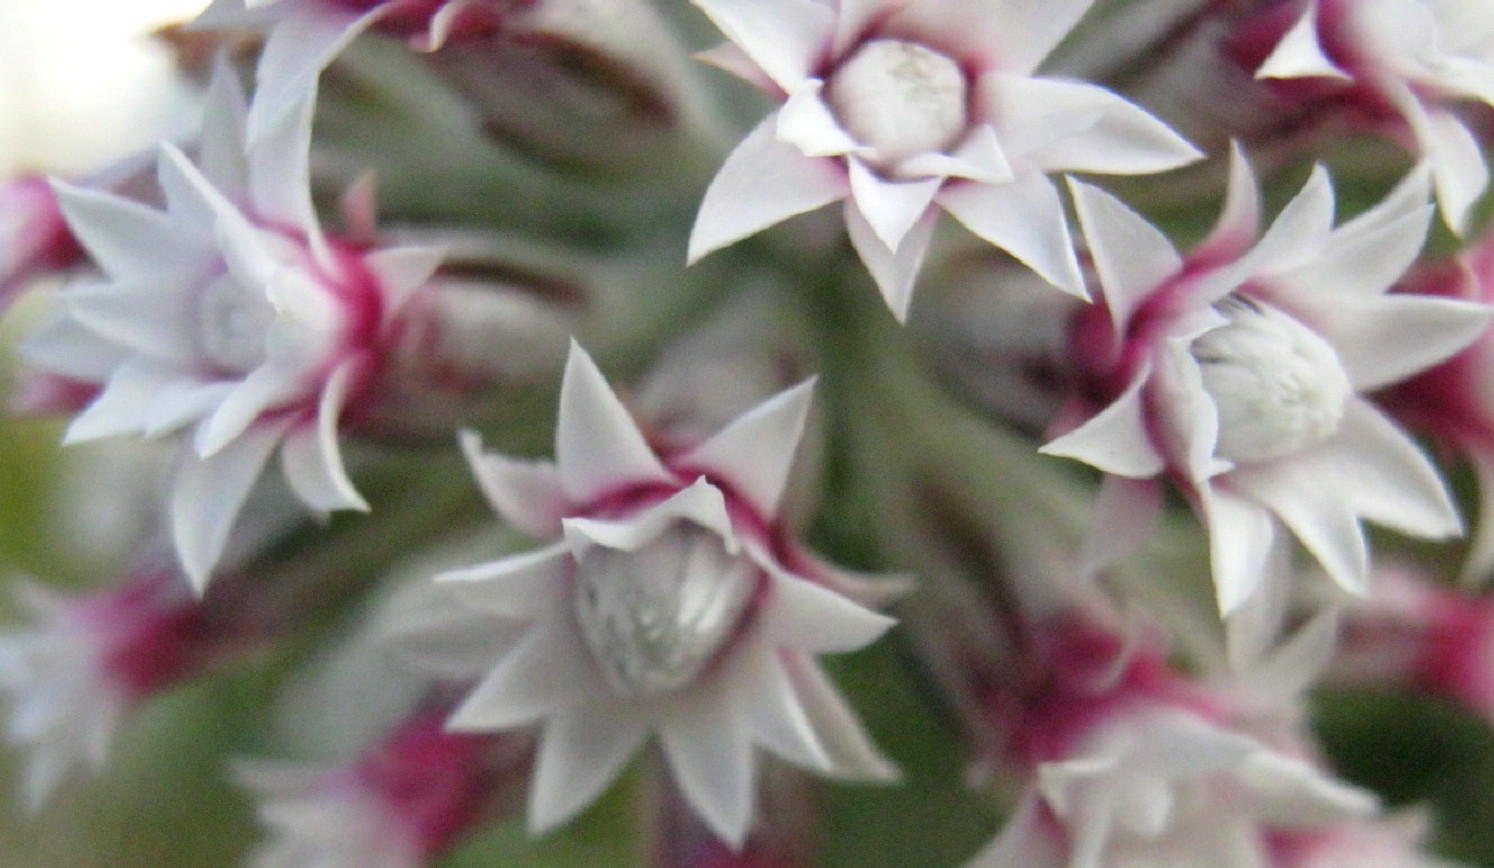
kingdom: Plantae
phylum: Tracheophyta
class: Magnoliopsida
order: Asterales
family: Asteraceae
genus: Metalasia
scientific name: Metalasia lichtensteinii
